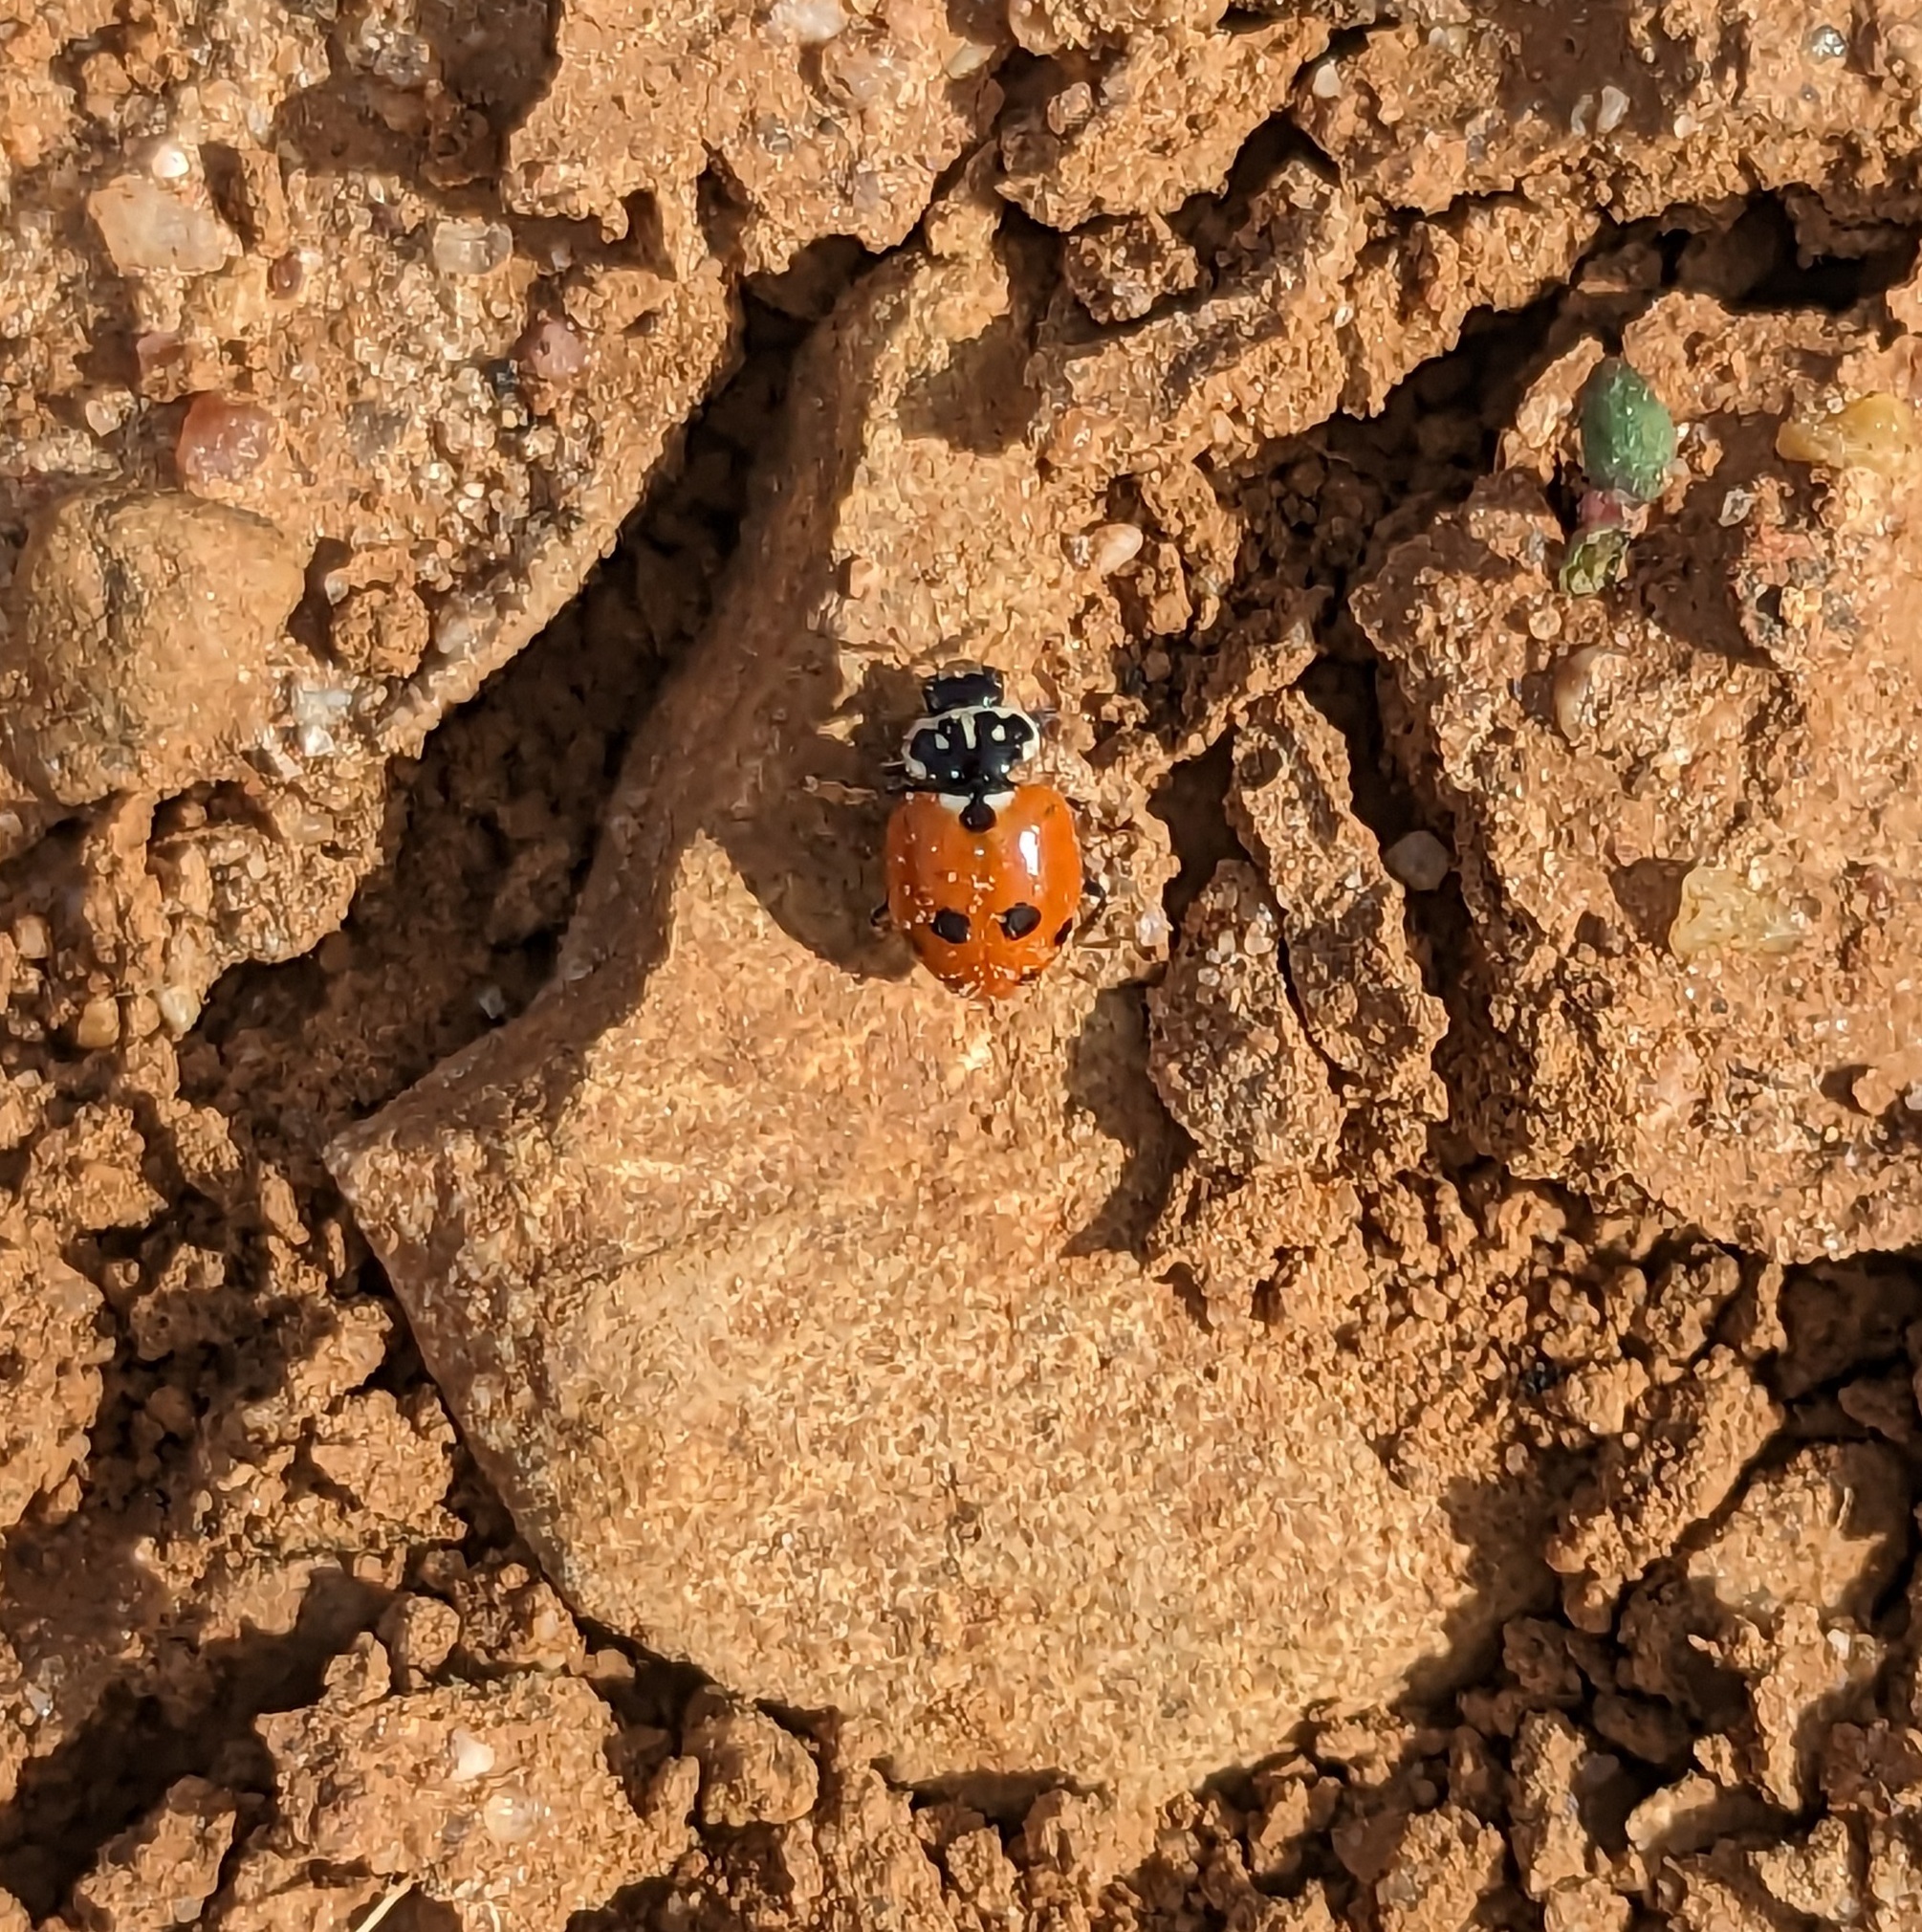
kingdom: Animalia
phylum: Arthropoda
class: Insecta
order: Coleoptera
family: Coccinellidae
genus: Hippodamia
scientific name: Hippodamia variegata
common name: Ladybird beetle
